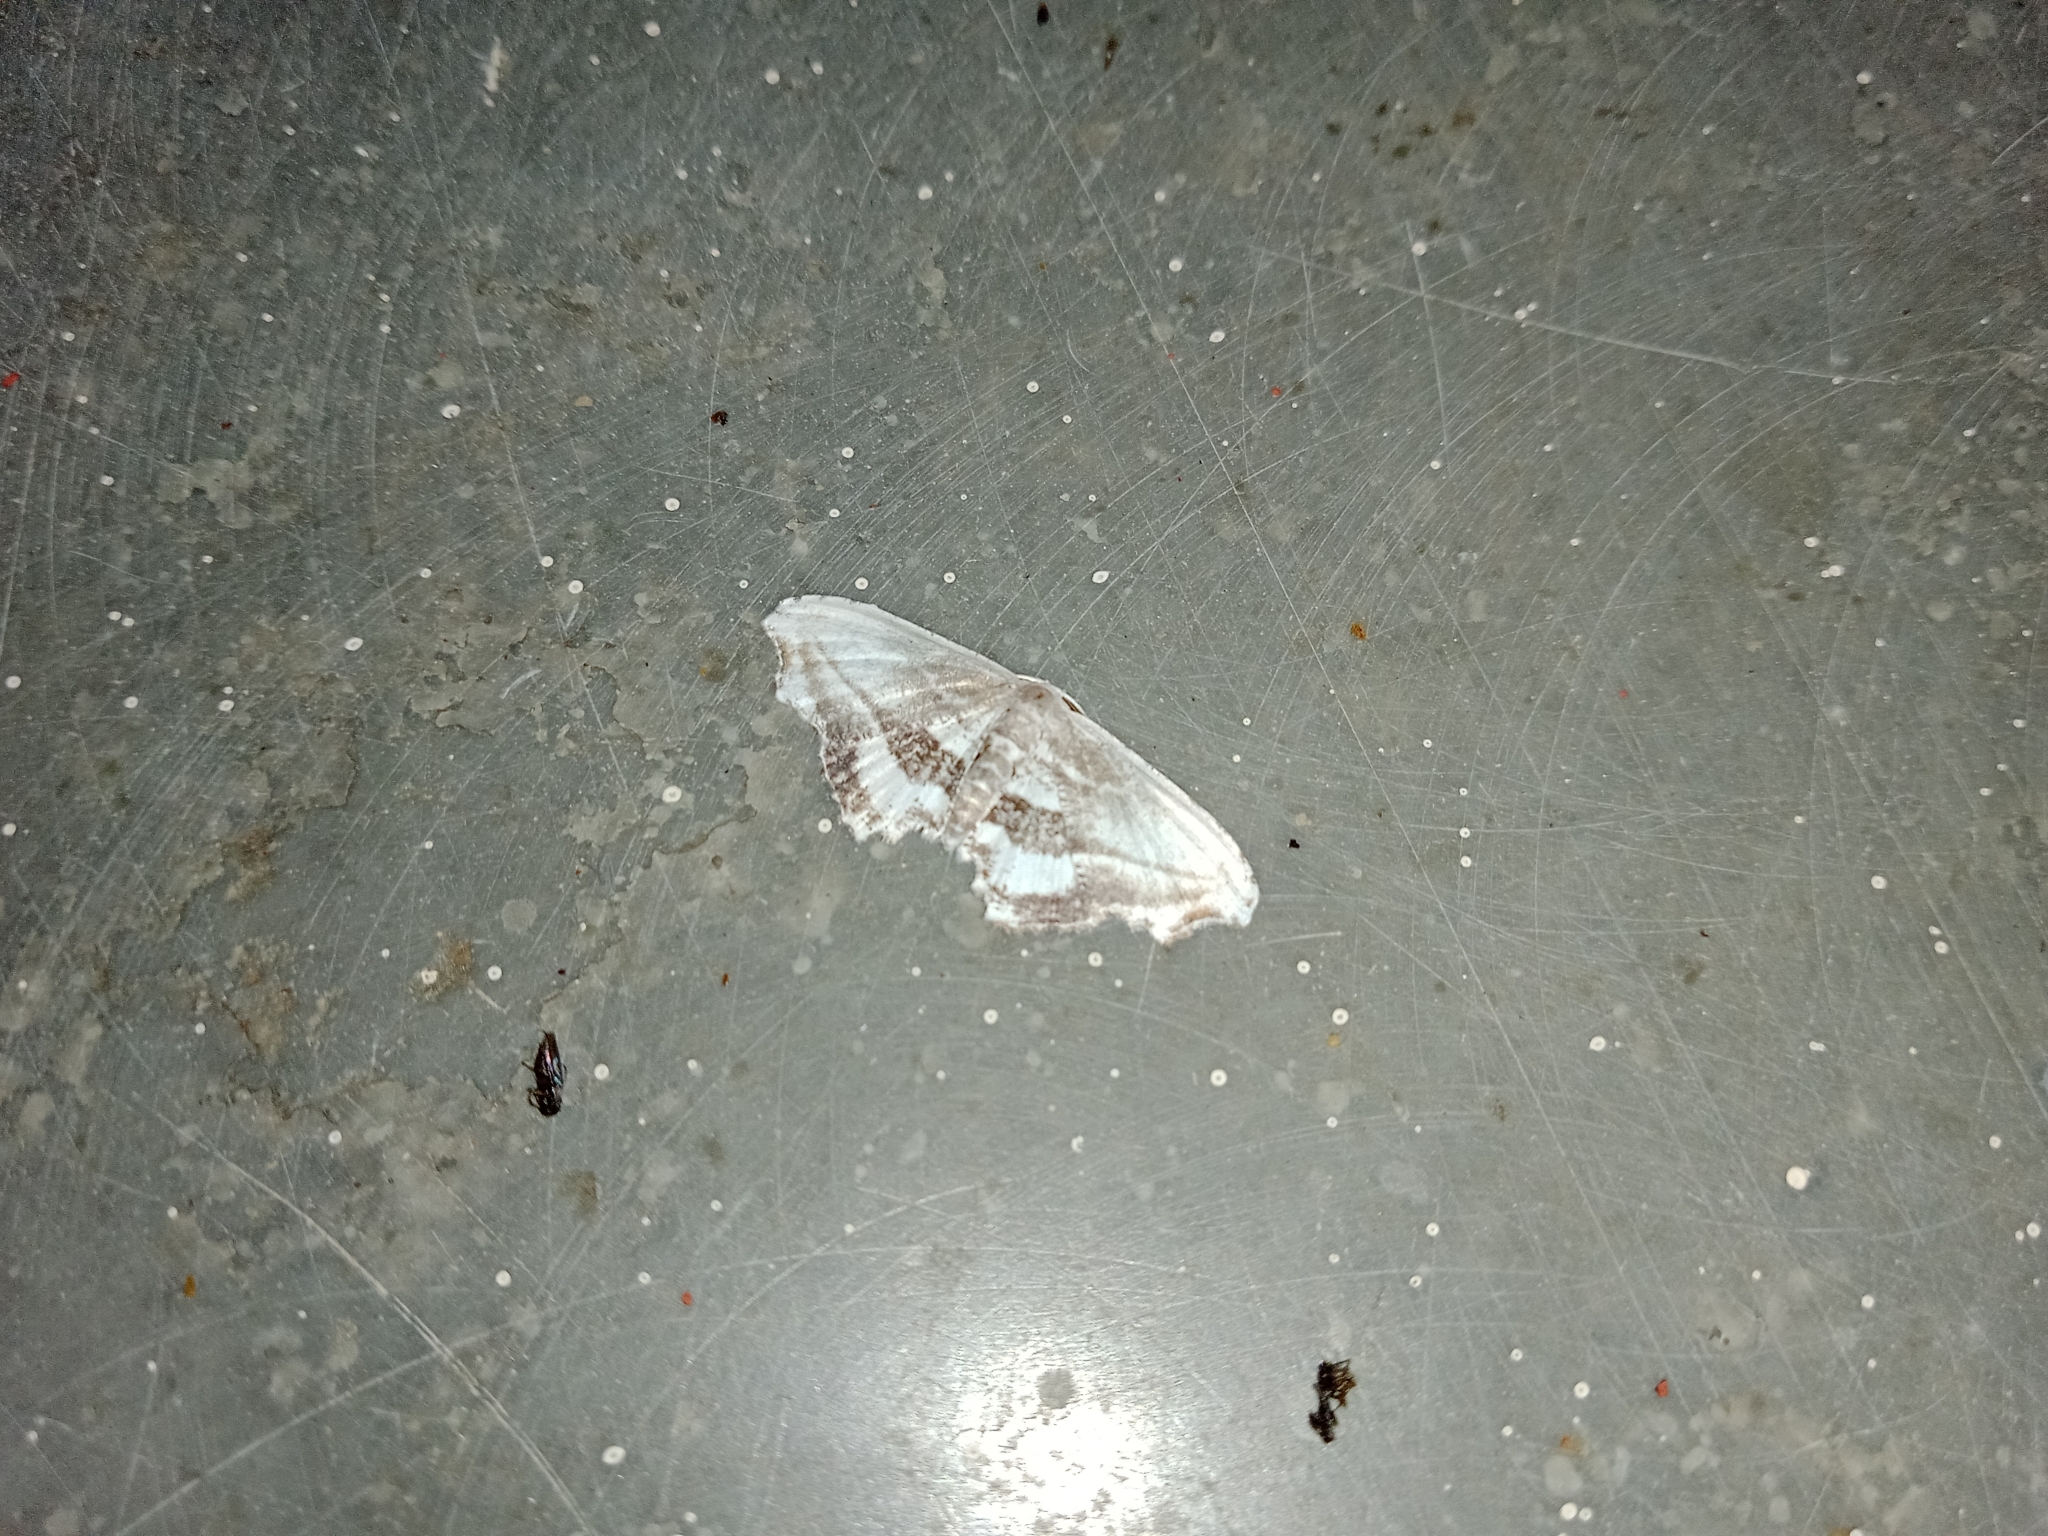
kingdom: Animalia
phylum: Arthropoda
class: Insecta
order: Lepidoptera
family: Uraniidae
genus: Rhombophylla
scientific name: Rhombophylla edentata
